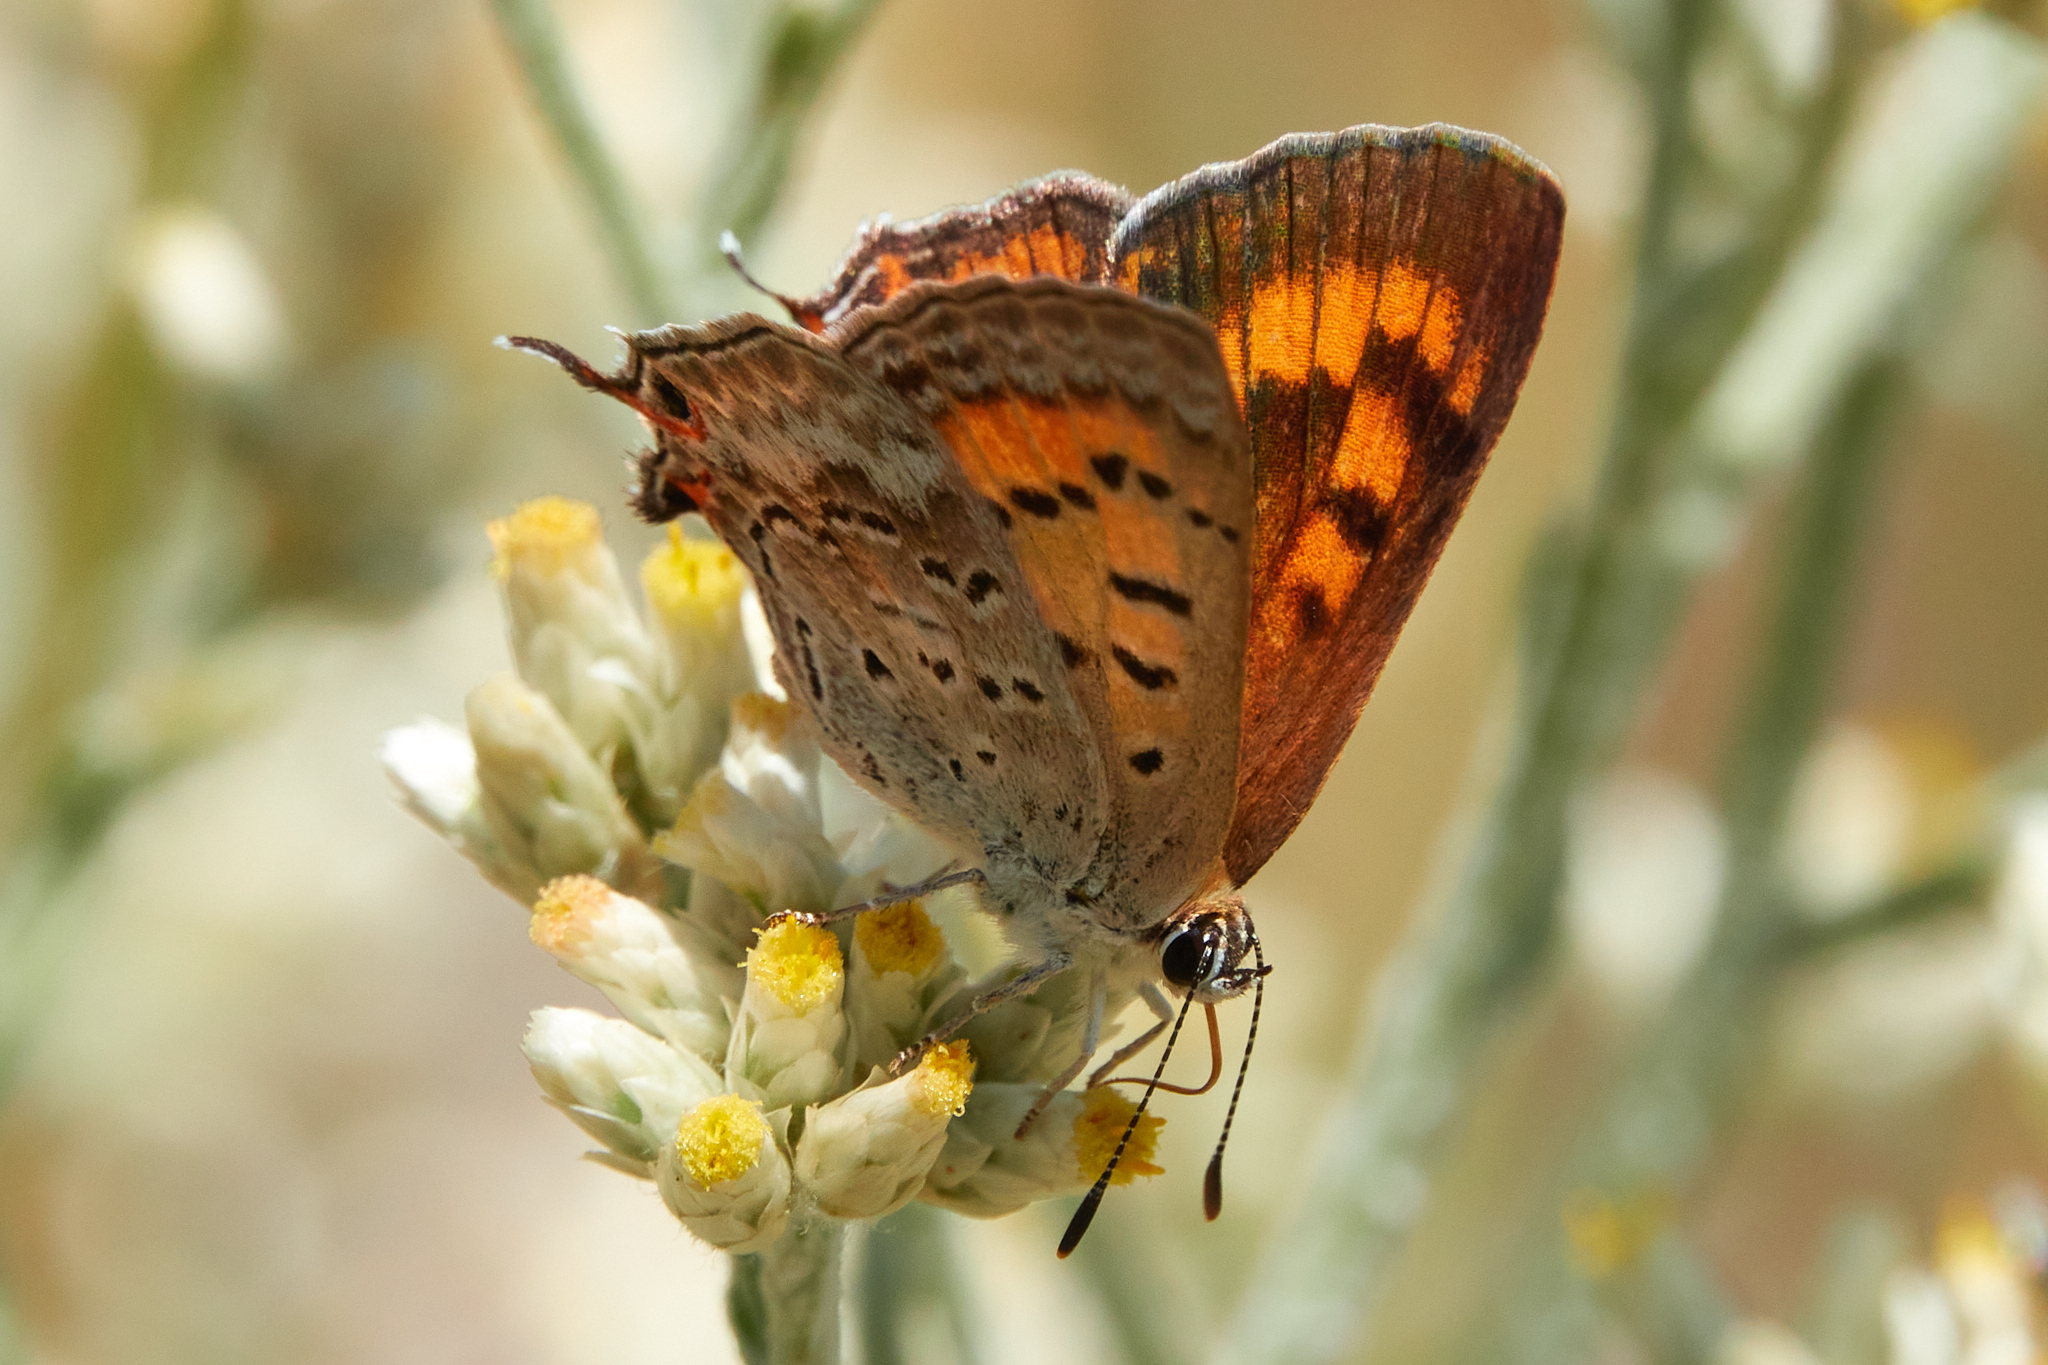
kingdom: Animalia
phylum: Arthropoda
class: Insecta
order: Lepidoptera
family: Lycaenidae
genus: Tharsalea
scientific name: Tharsalea arota
